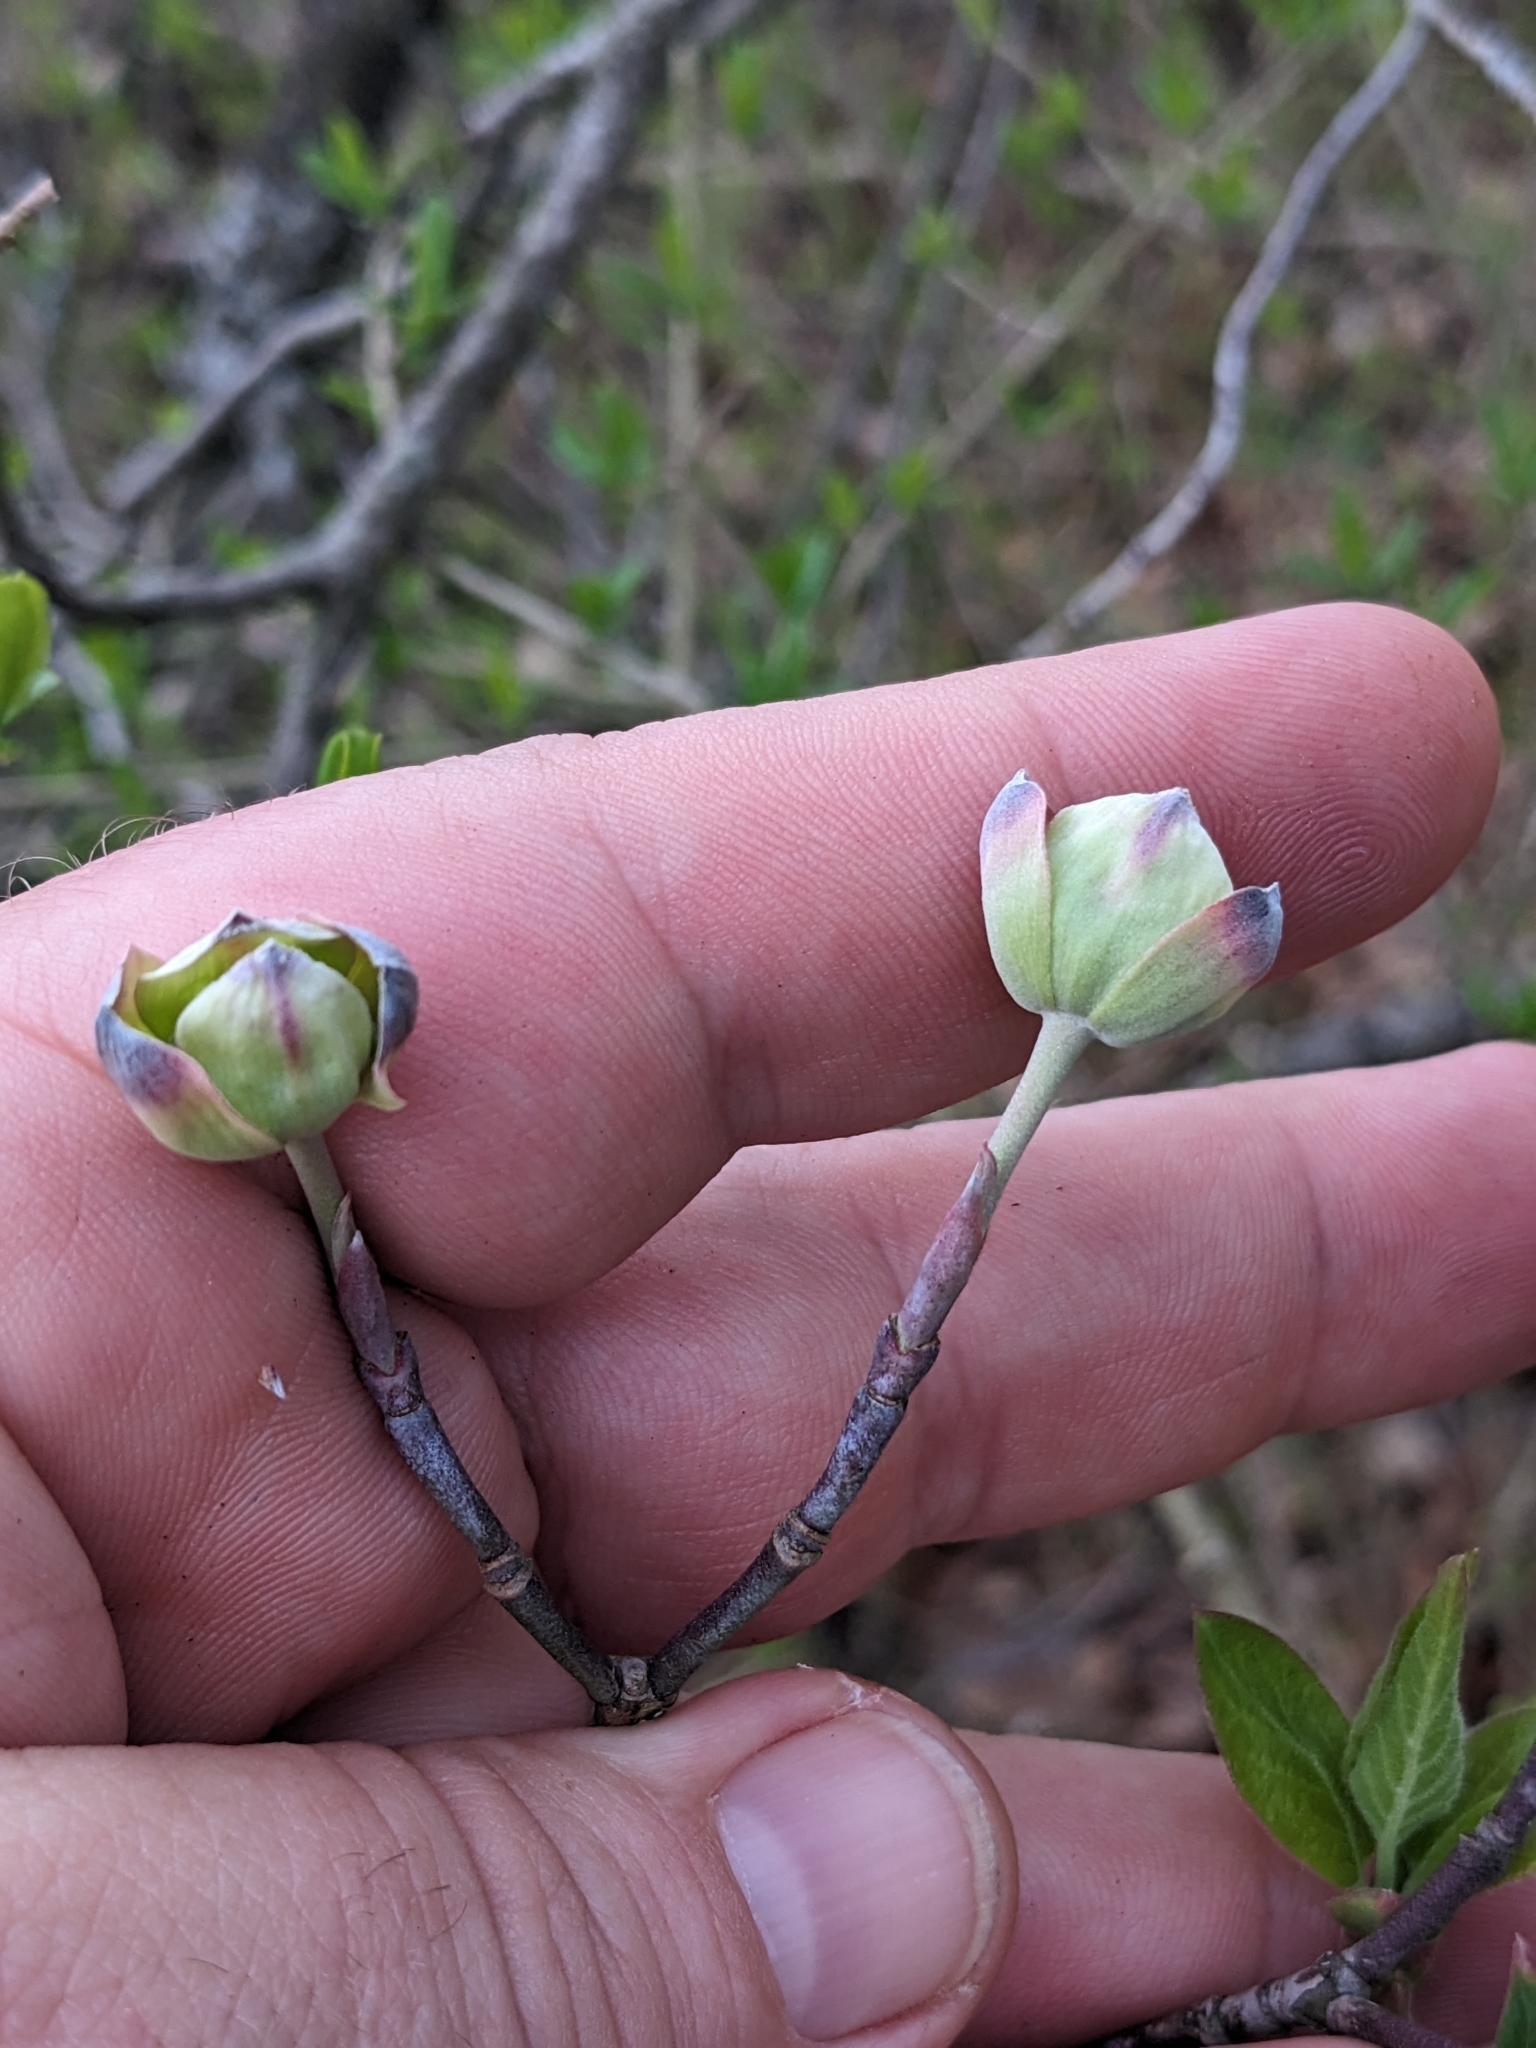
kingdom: Plantae
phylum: Tracheophyta
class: Magnoliopsida
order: Cornales
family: Cornaceae
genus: Cornus
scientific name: Cornus florida
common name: Flowering dogwood
